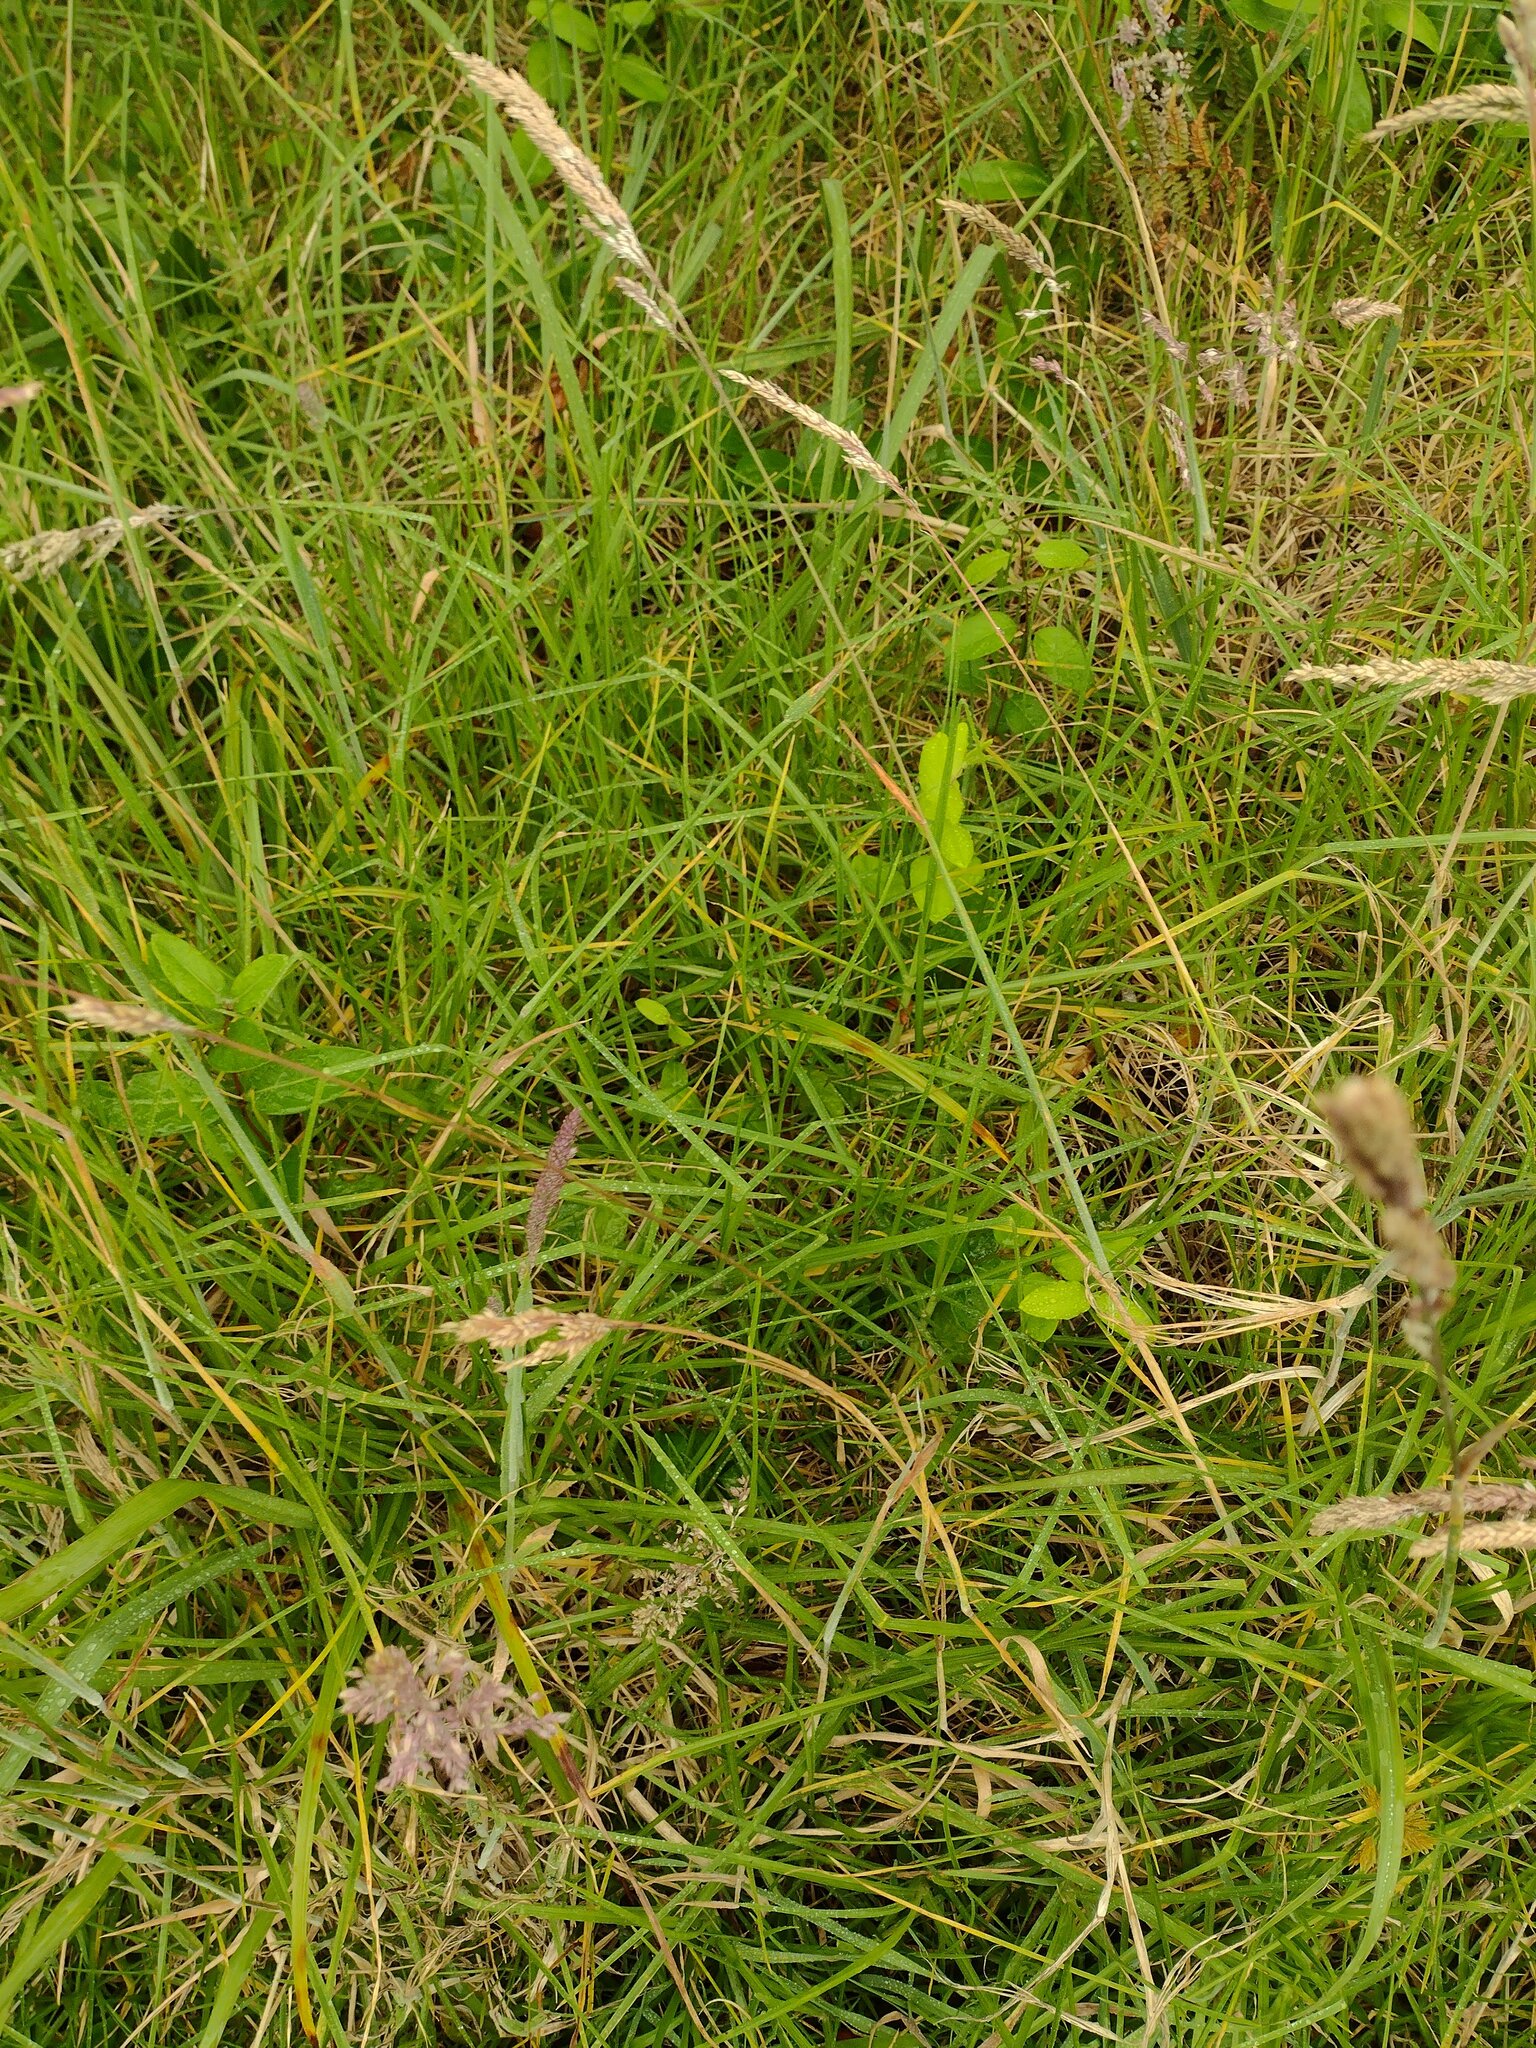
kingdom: Plantae
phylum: Tracheophyta
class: Liliopsida
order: Poales
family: Poaceae
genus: Holcus
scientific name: Holcus lanatus
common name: Yorkshire-fog
